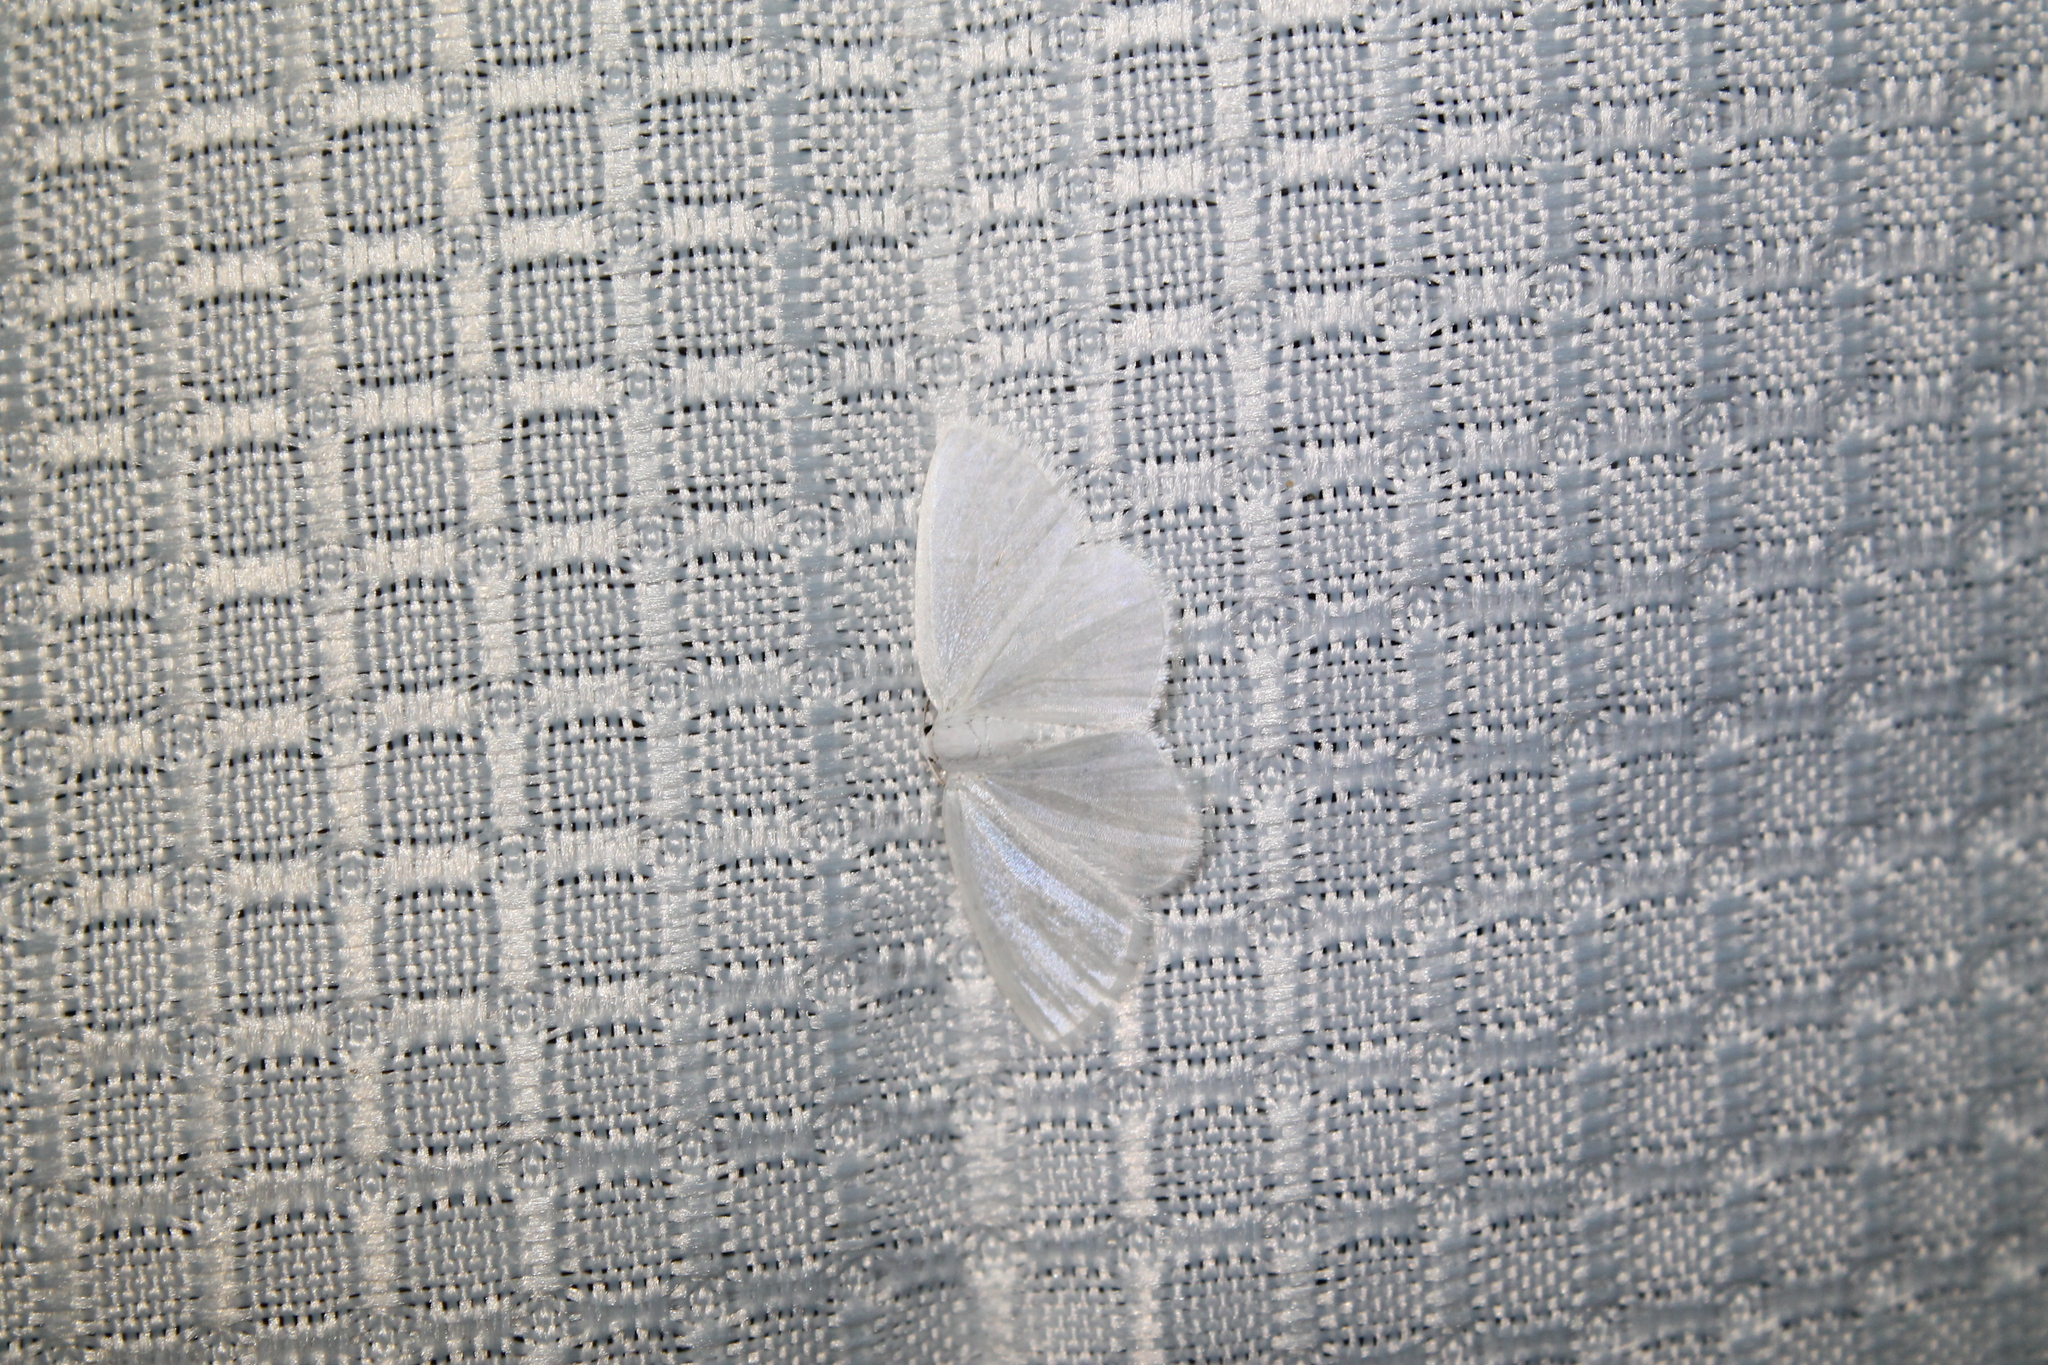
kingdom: Animalia
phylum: Arthropoda
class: Insecta
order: Lepidoptera
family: Geometridae
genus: Lomographa
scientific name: Lomographa vestaliata
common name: White spring moth
